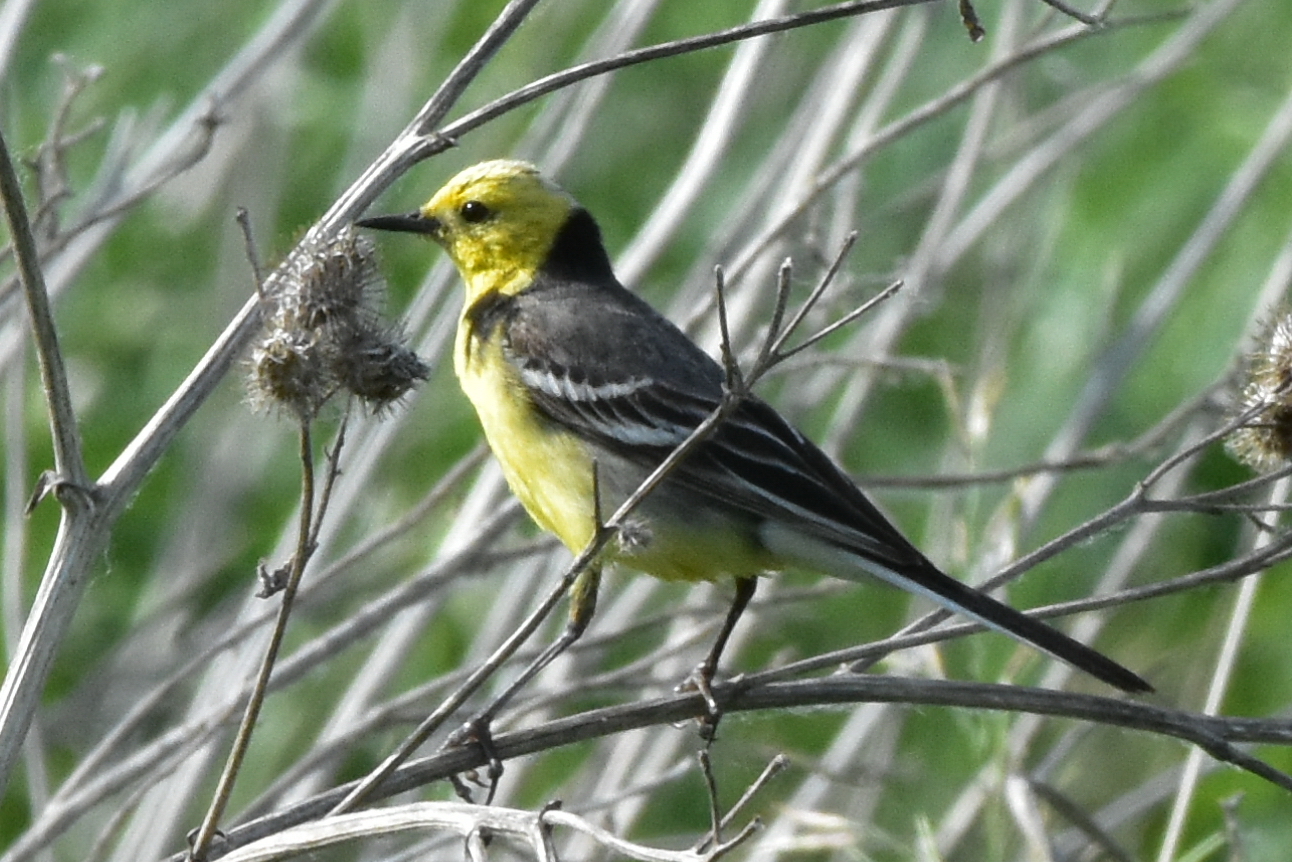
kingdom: Animalia
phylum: Chordata
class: Aves
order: Passeriformes
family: Motacillidae
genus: Motacilla
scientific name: Motacilla citreola
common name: Citrine wagtail
